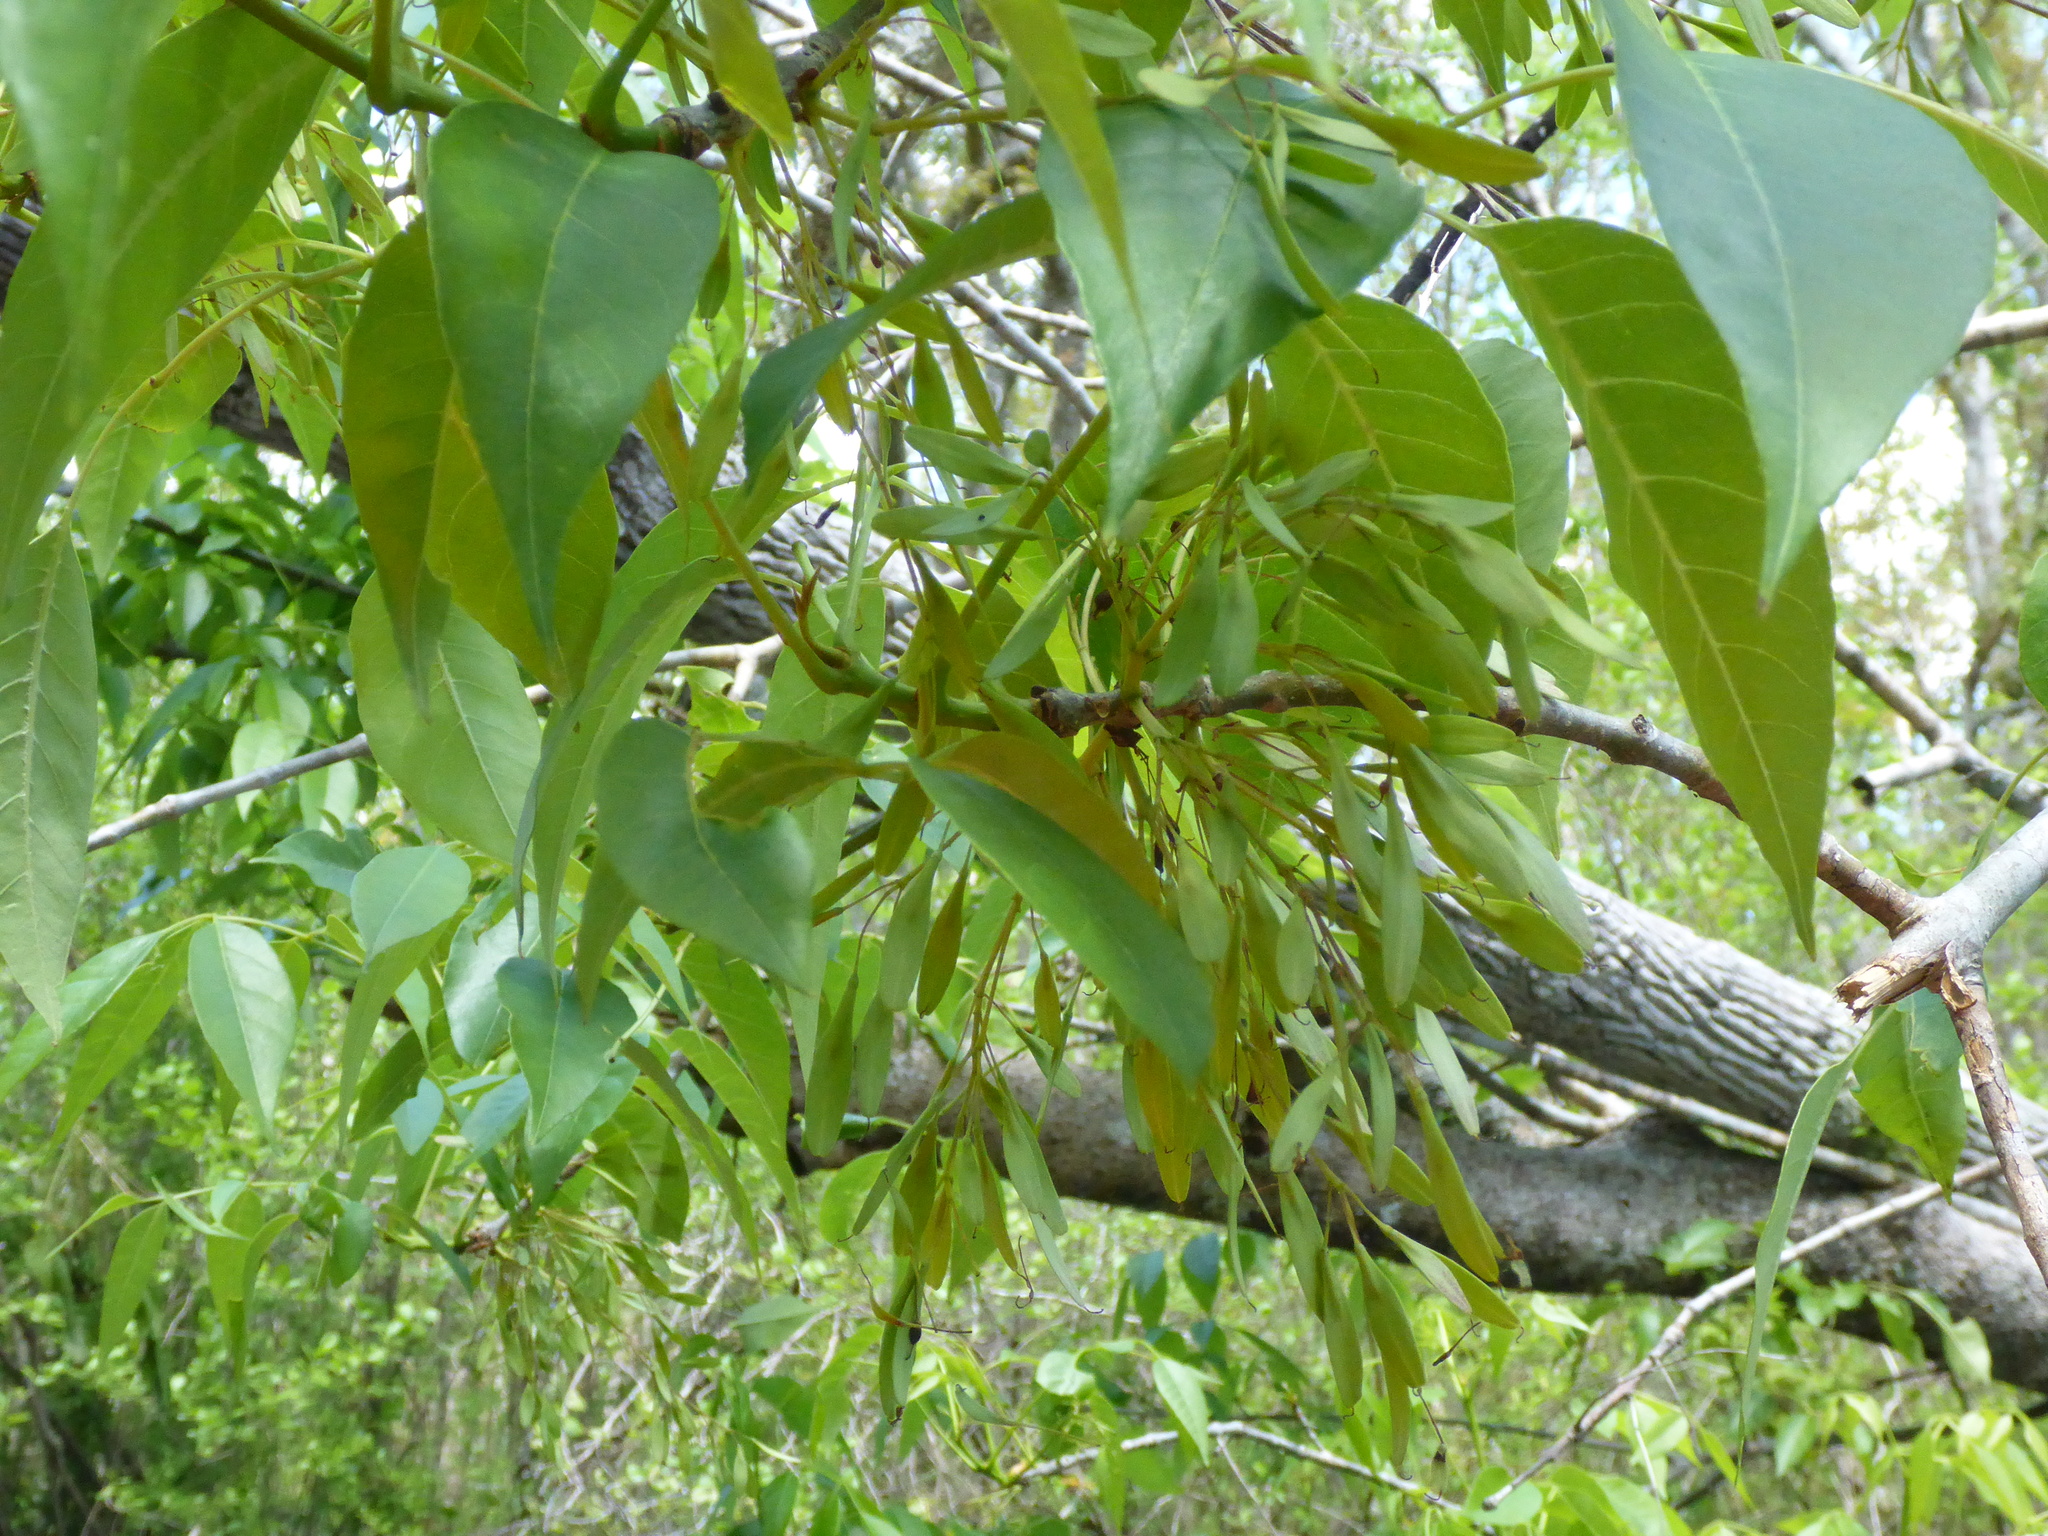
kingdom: Plantae
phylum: Tracheophyta
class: Magnoliopsida
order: Lamiales
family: Oleaceae
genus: Fraxinus
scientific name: Fraxinus profunda
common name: Pumpkin ash
